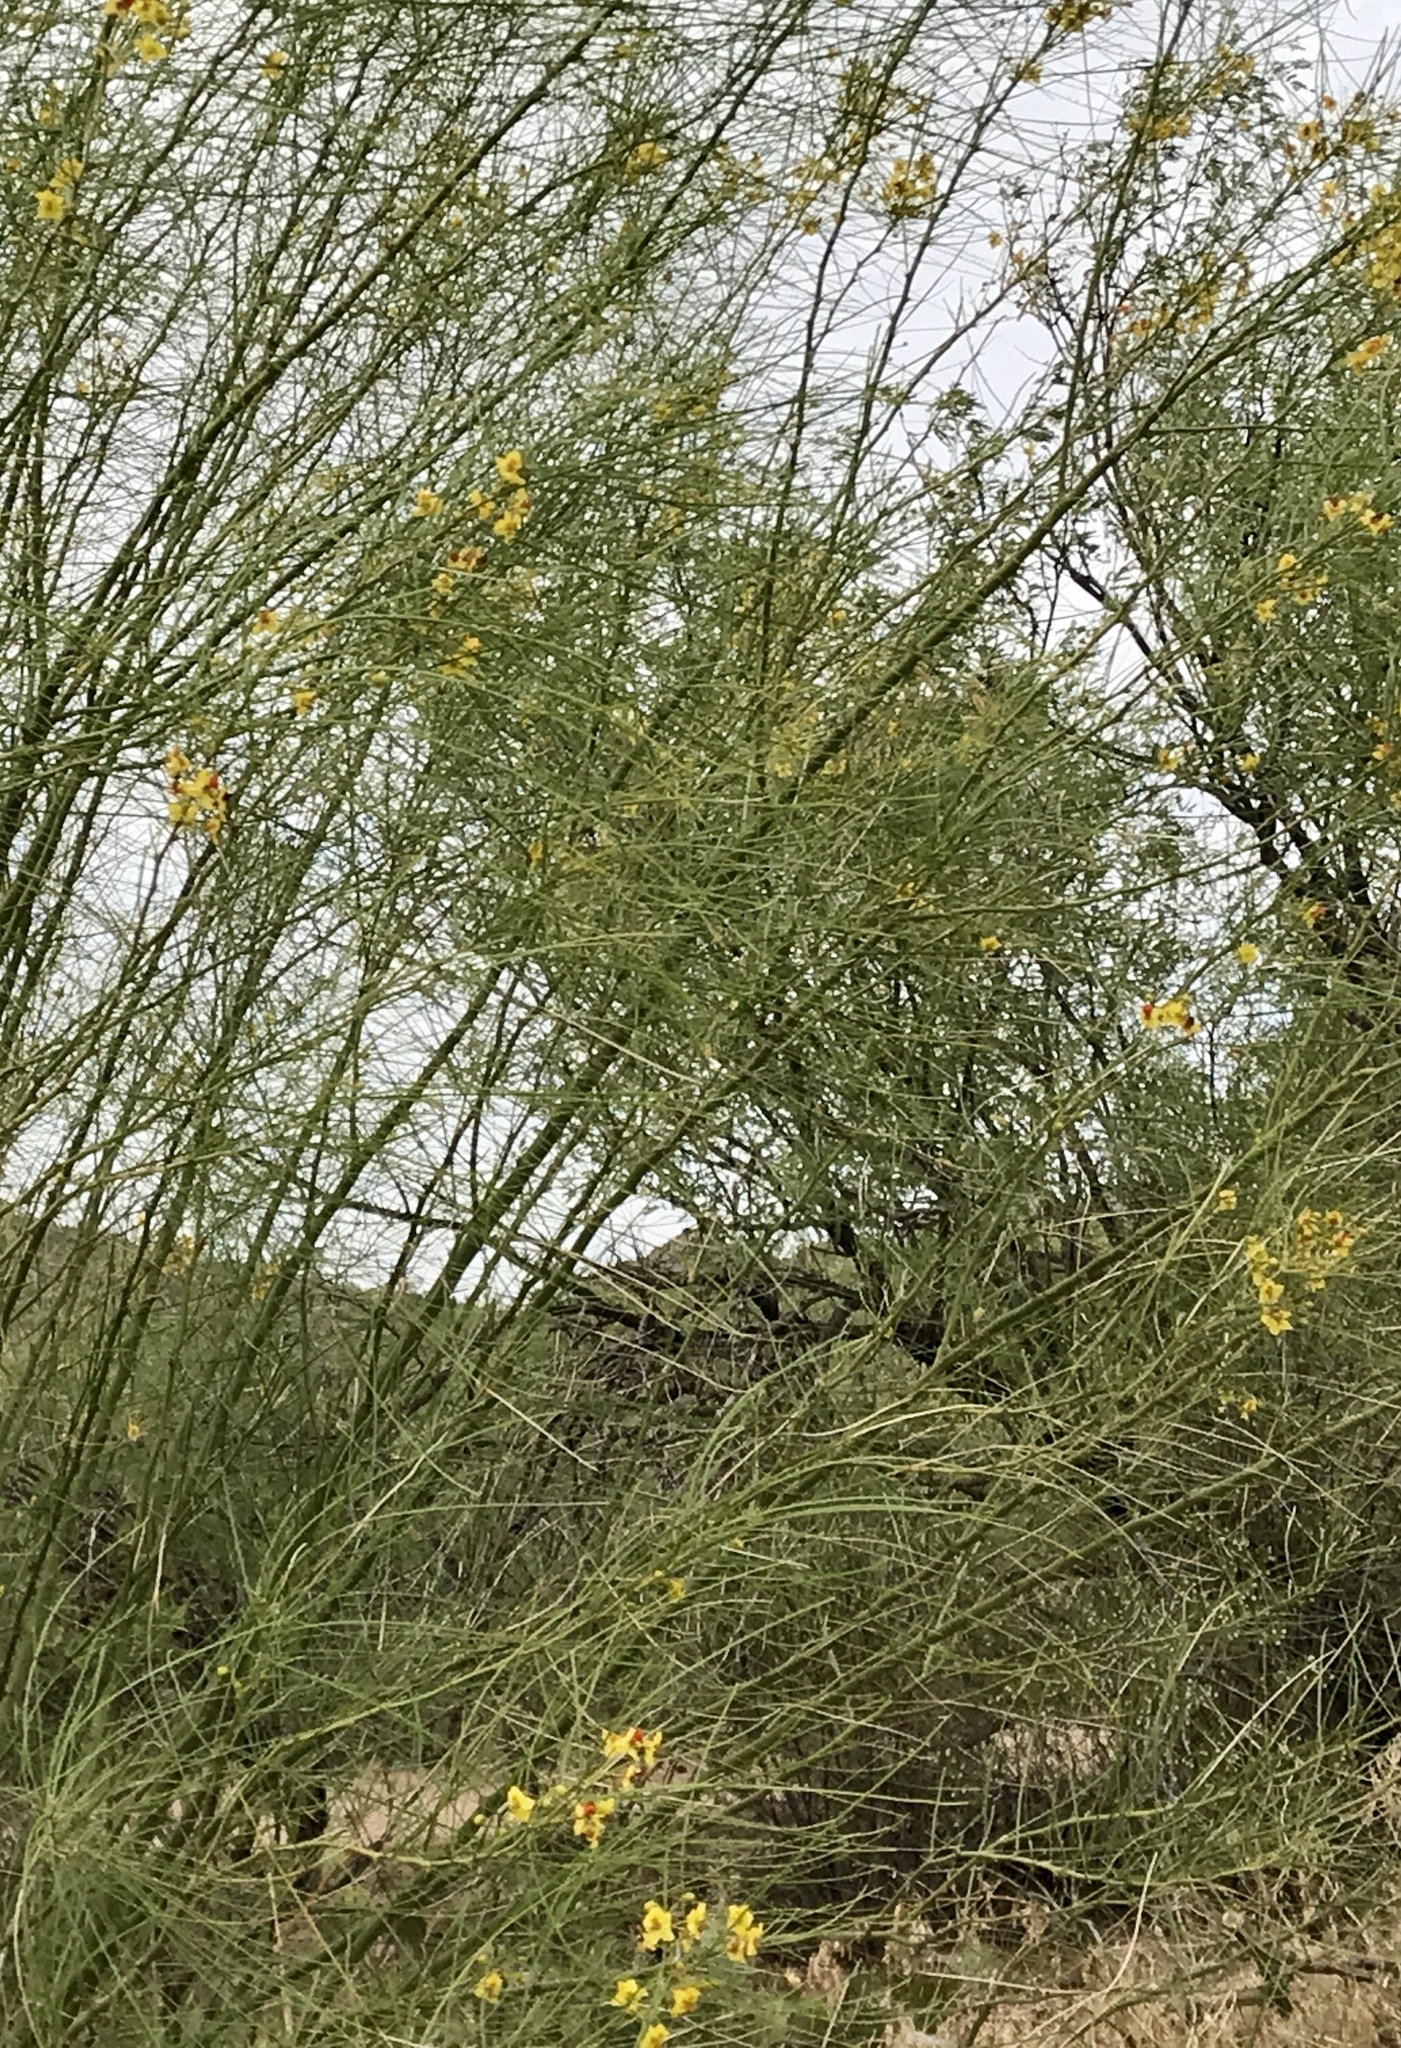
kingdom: Plantae
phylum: Tracheophyta
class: Magnoliopsida
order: Fabales
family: Fabaceae
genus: Parkinsonia
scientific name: Parkinsonia aculeata
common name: Jerusalem thorn
